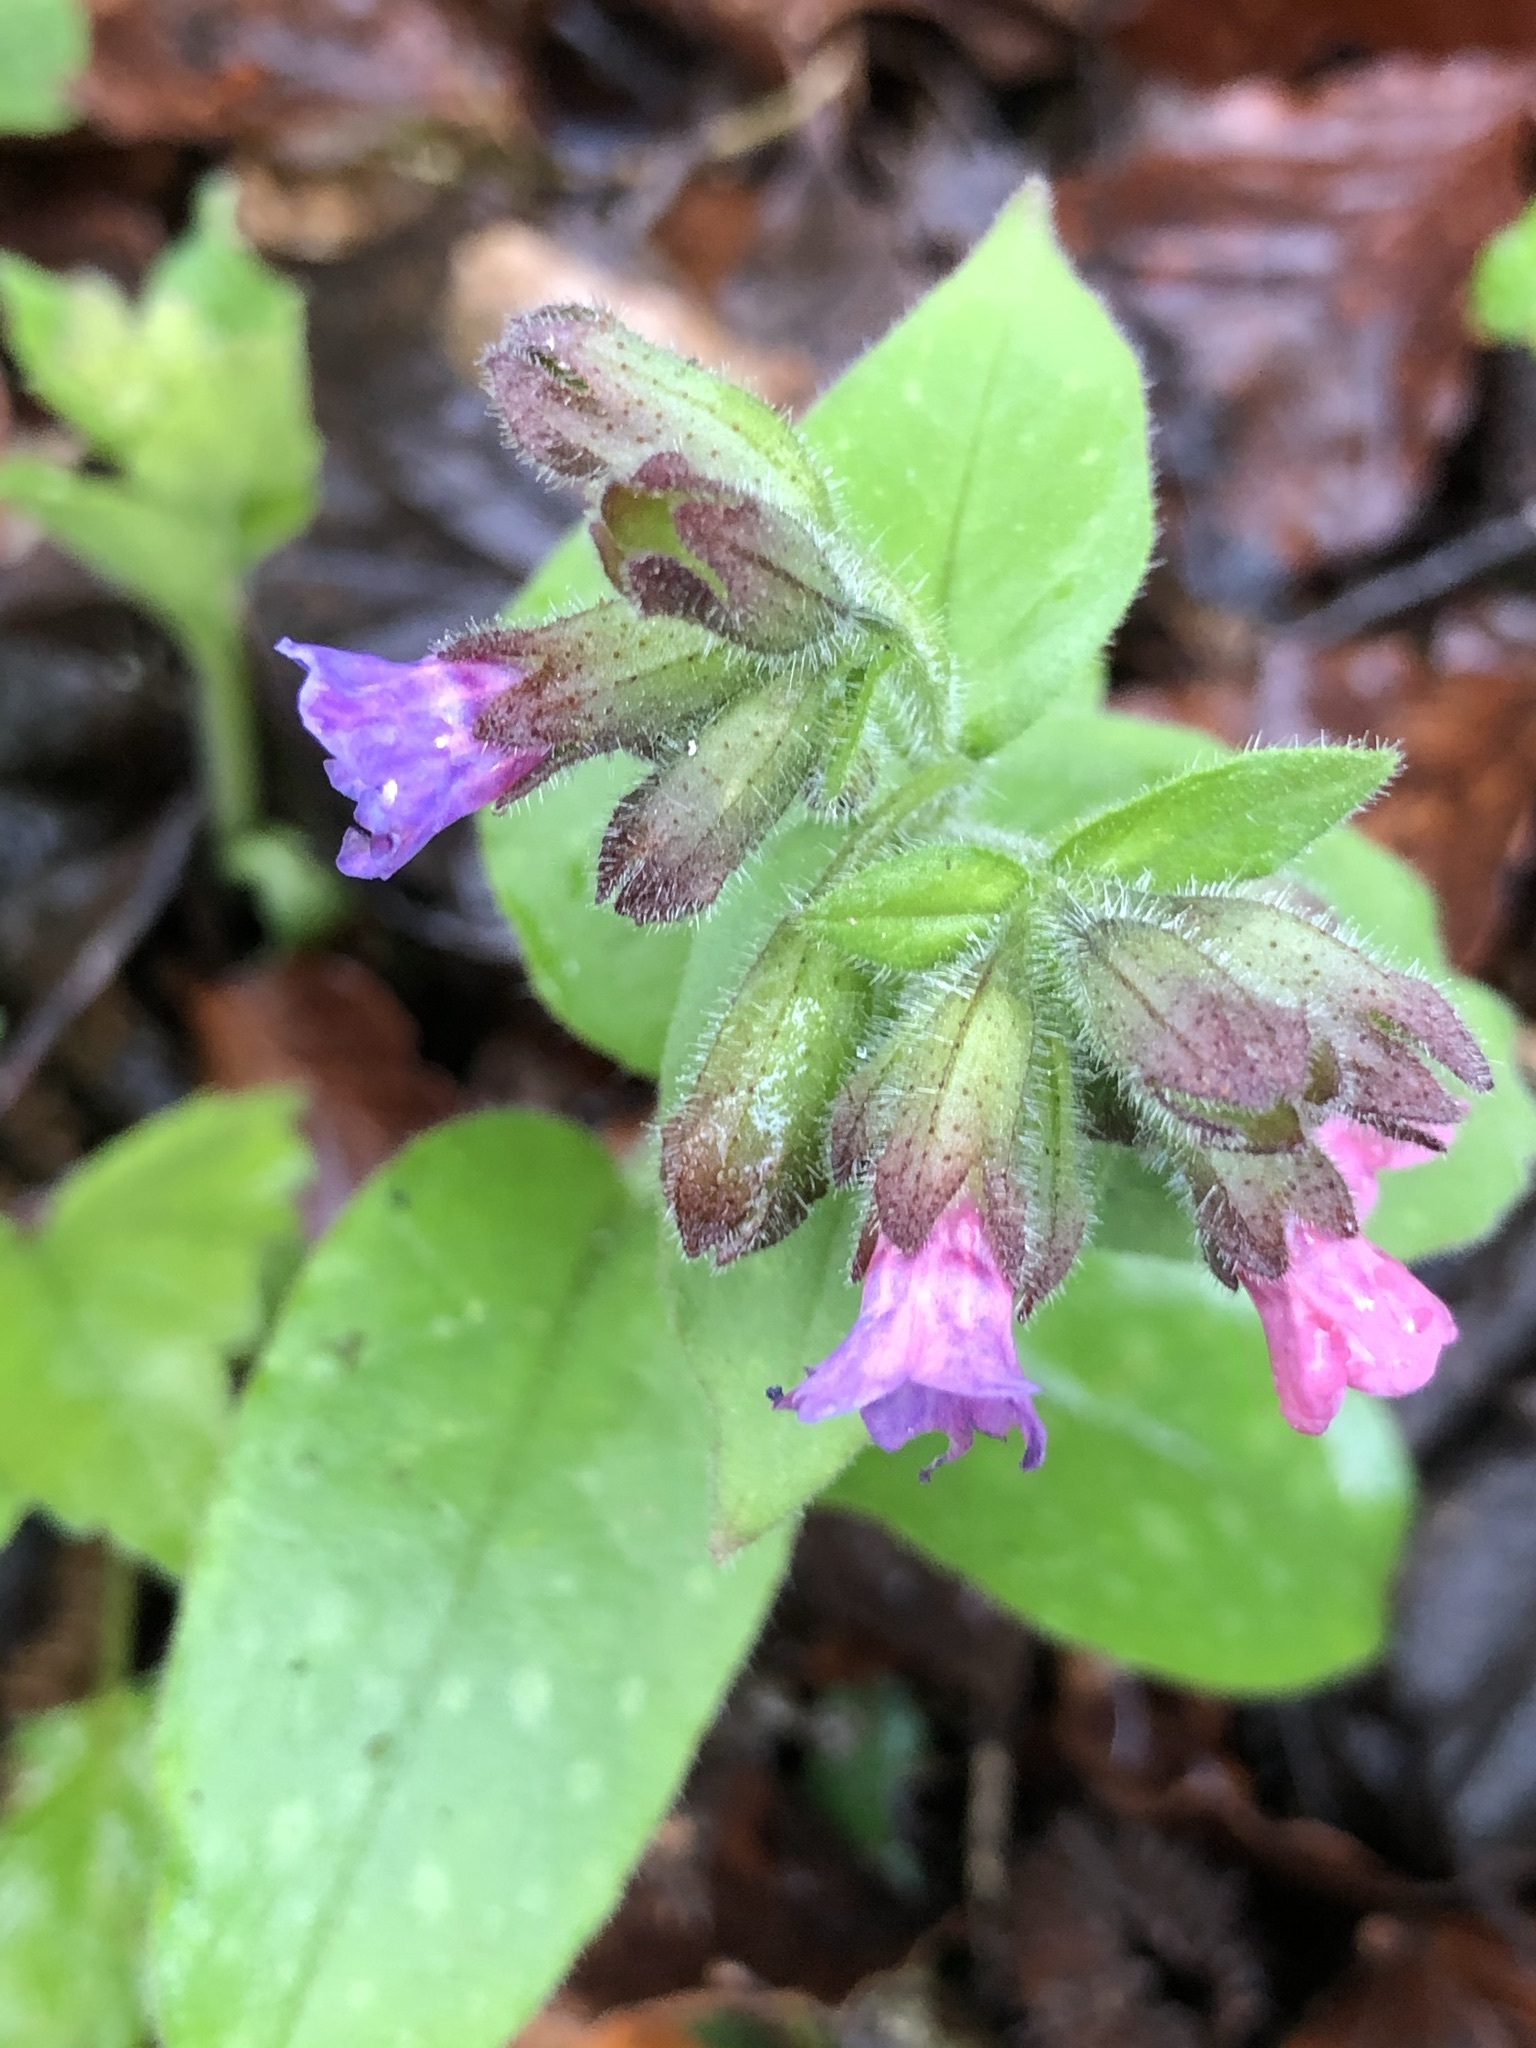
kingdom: Plantae
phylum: Tracheophyta
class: Magnoliopsida
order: Boraginales
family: Boraginaceae
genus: Pulmonaria
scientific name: Pulmonaria officinalis
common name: Lungwort
